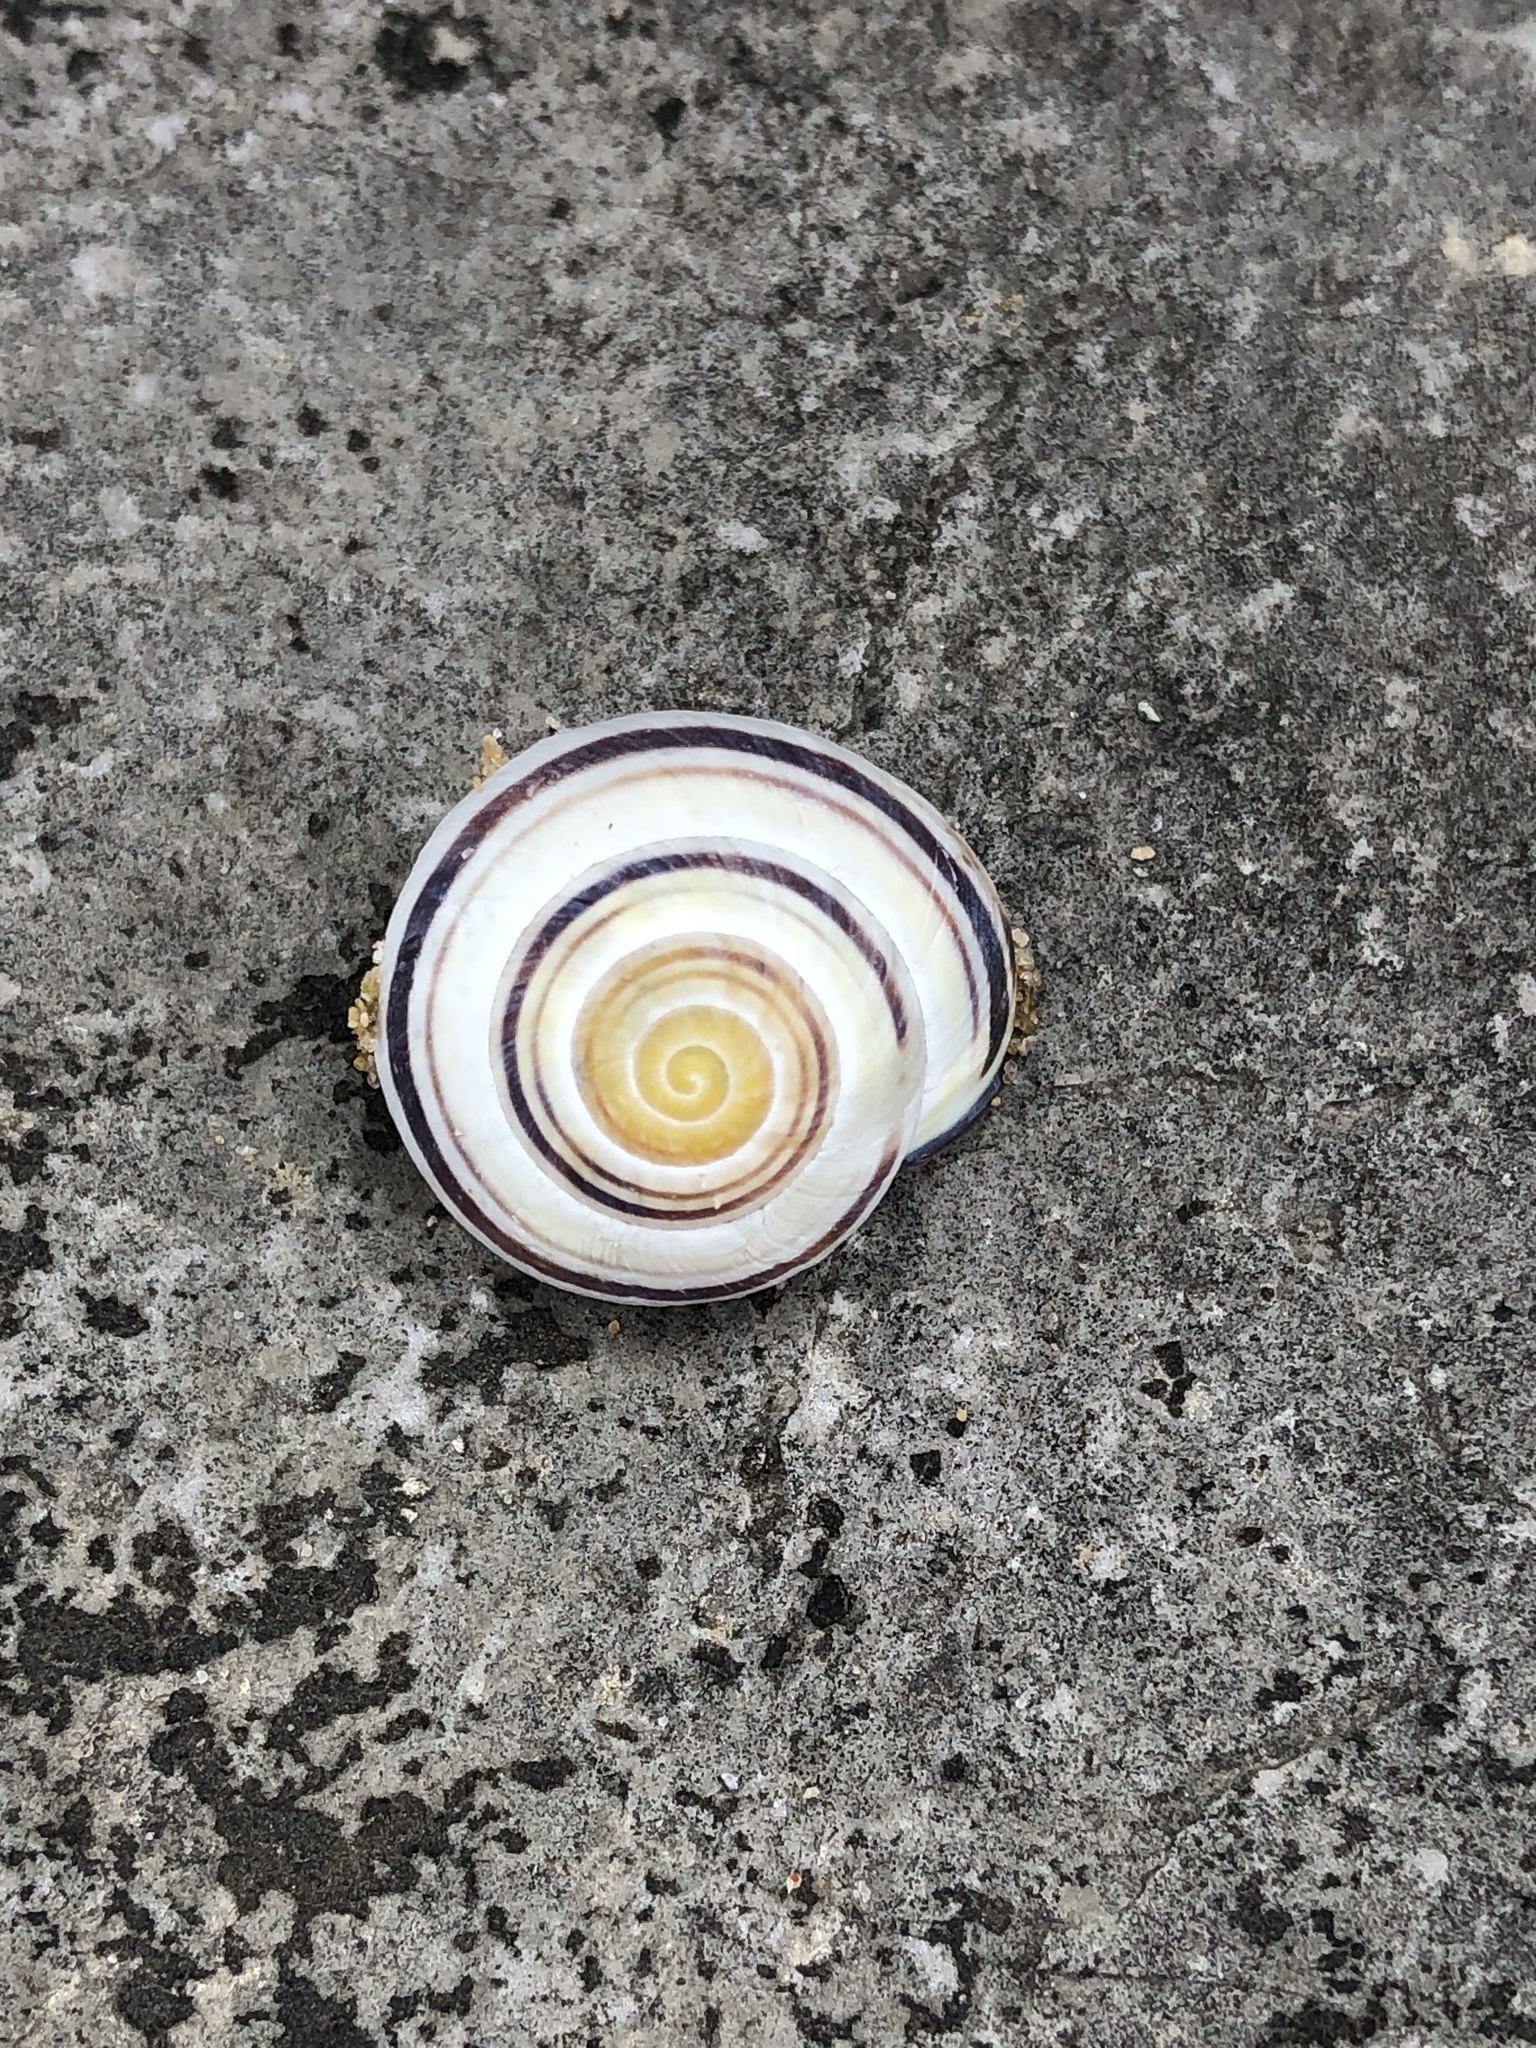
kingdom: Animalia
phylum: Mollusca
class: Gastropoda
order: Stylommatophora
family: Helicidae
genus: Cepaea
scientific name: Cepaea nemoralis
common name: Grovesnail
